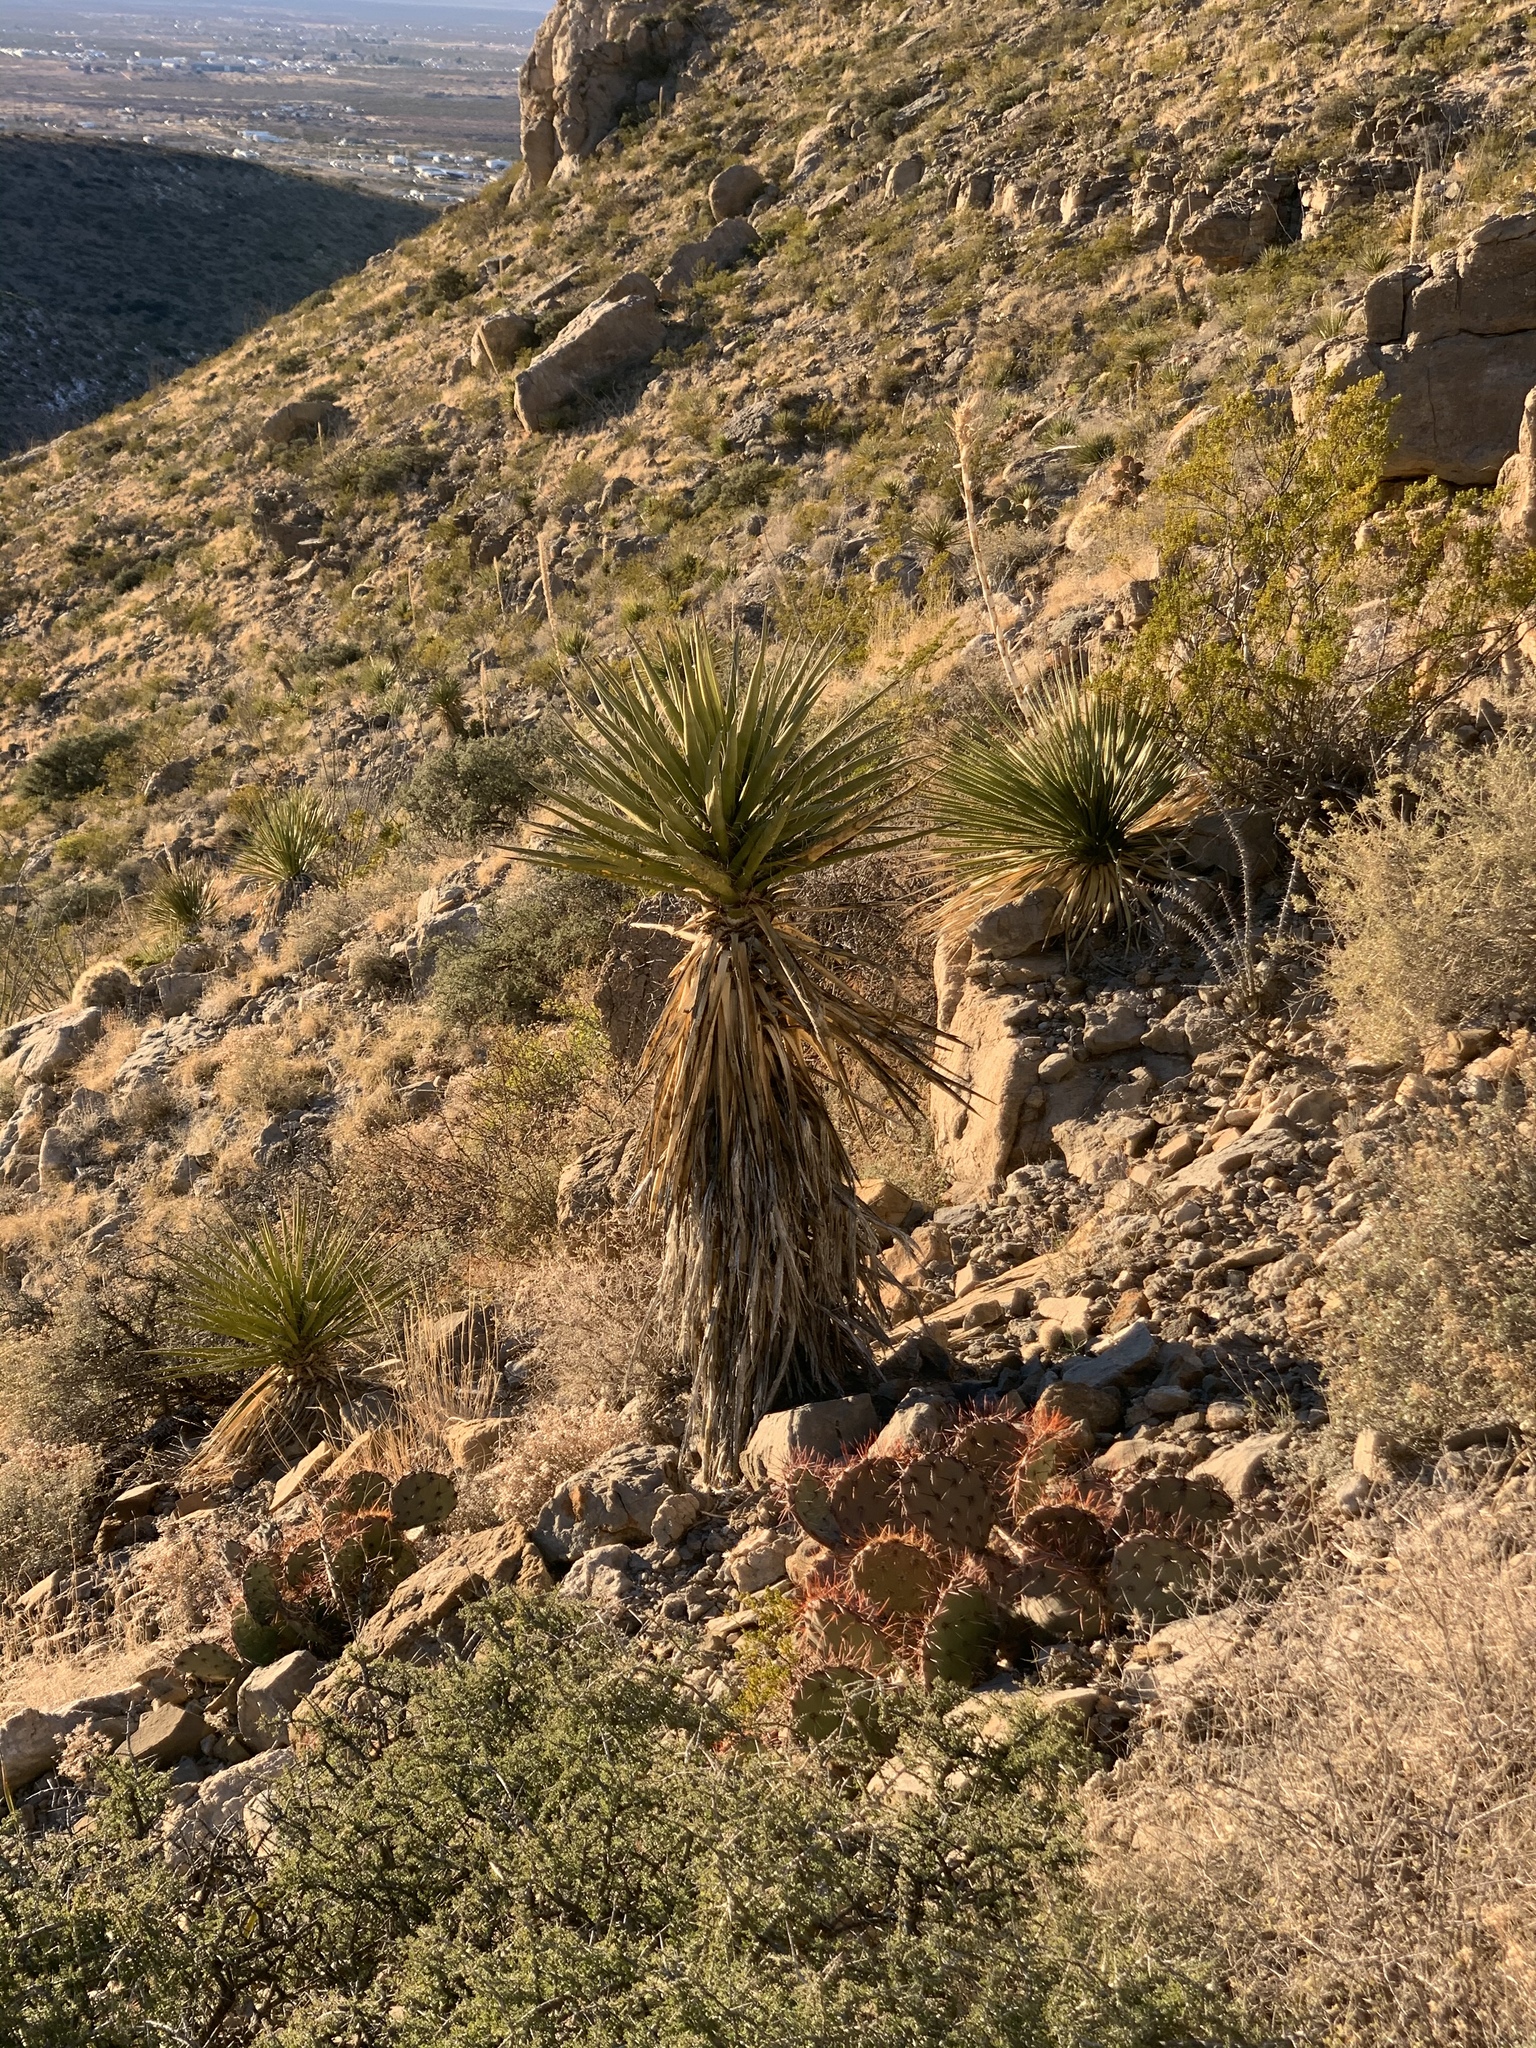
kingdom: Plantae
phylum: Tracheophyta
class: Liliopsida
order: Asparagales
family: Asparagaceae
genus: Yucca
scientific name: Yucca treculiana
